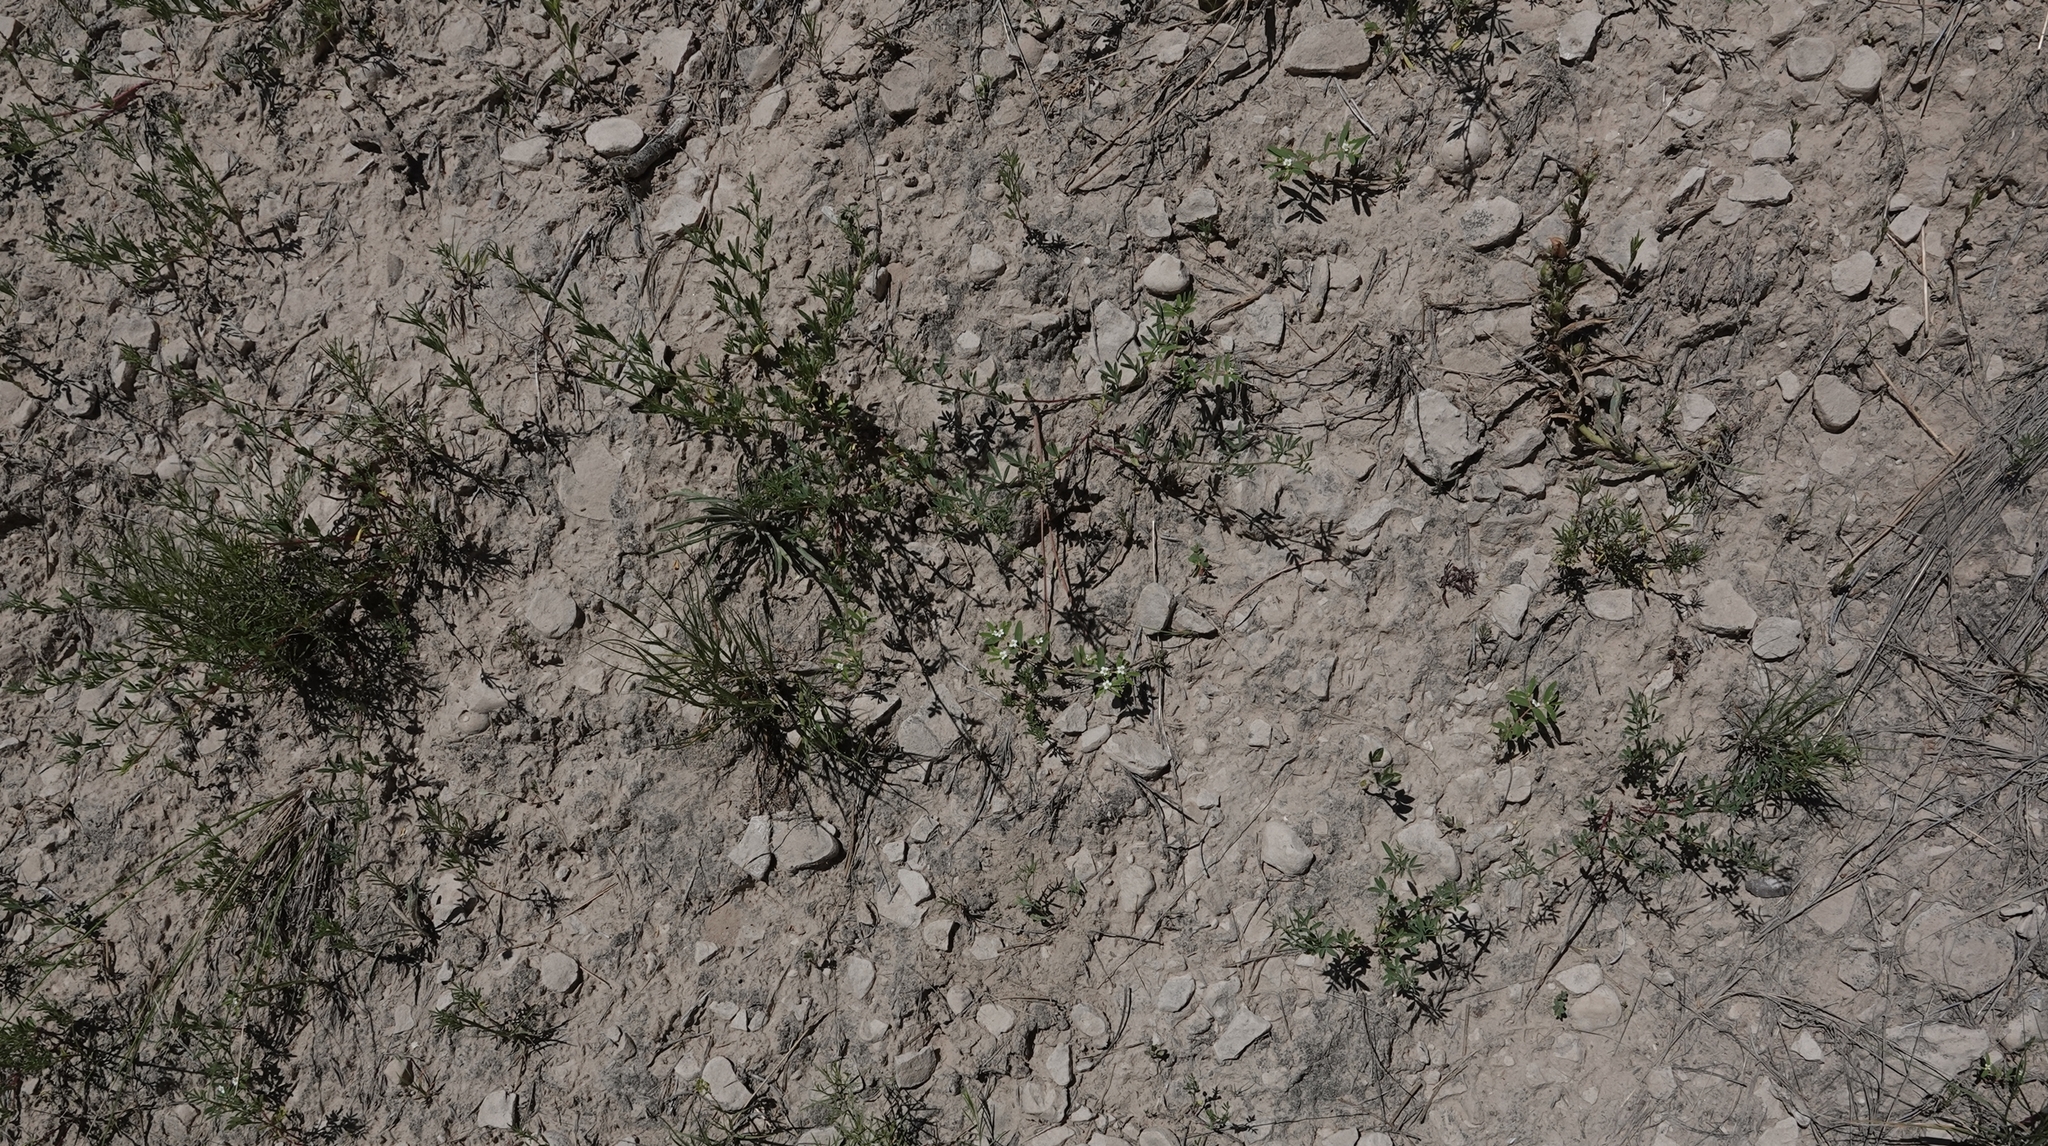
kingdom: Plantae
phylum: Tracheophyta
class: Magnoliopsida
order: Malpighiales
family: Euphorbiaceae
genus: Euphorbia
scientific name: Euphorbia missurica
